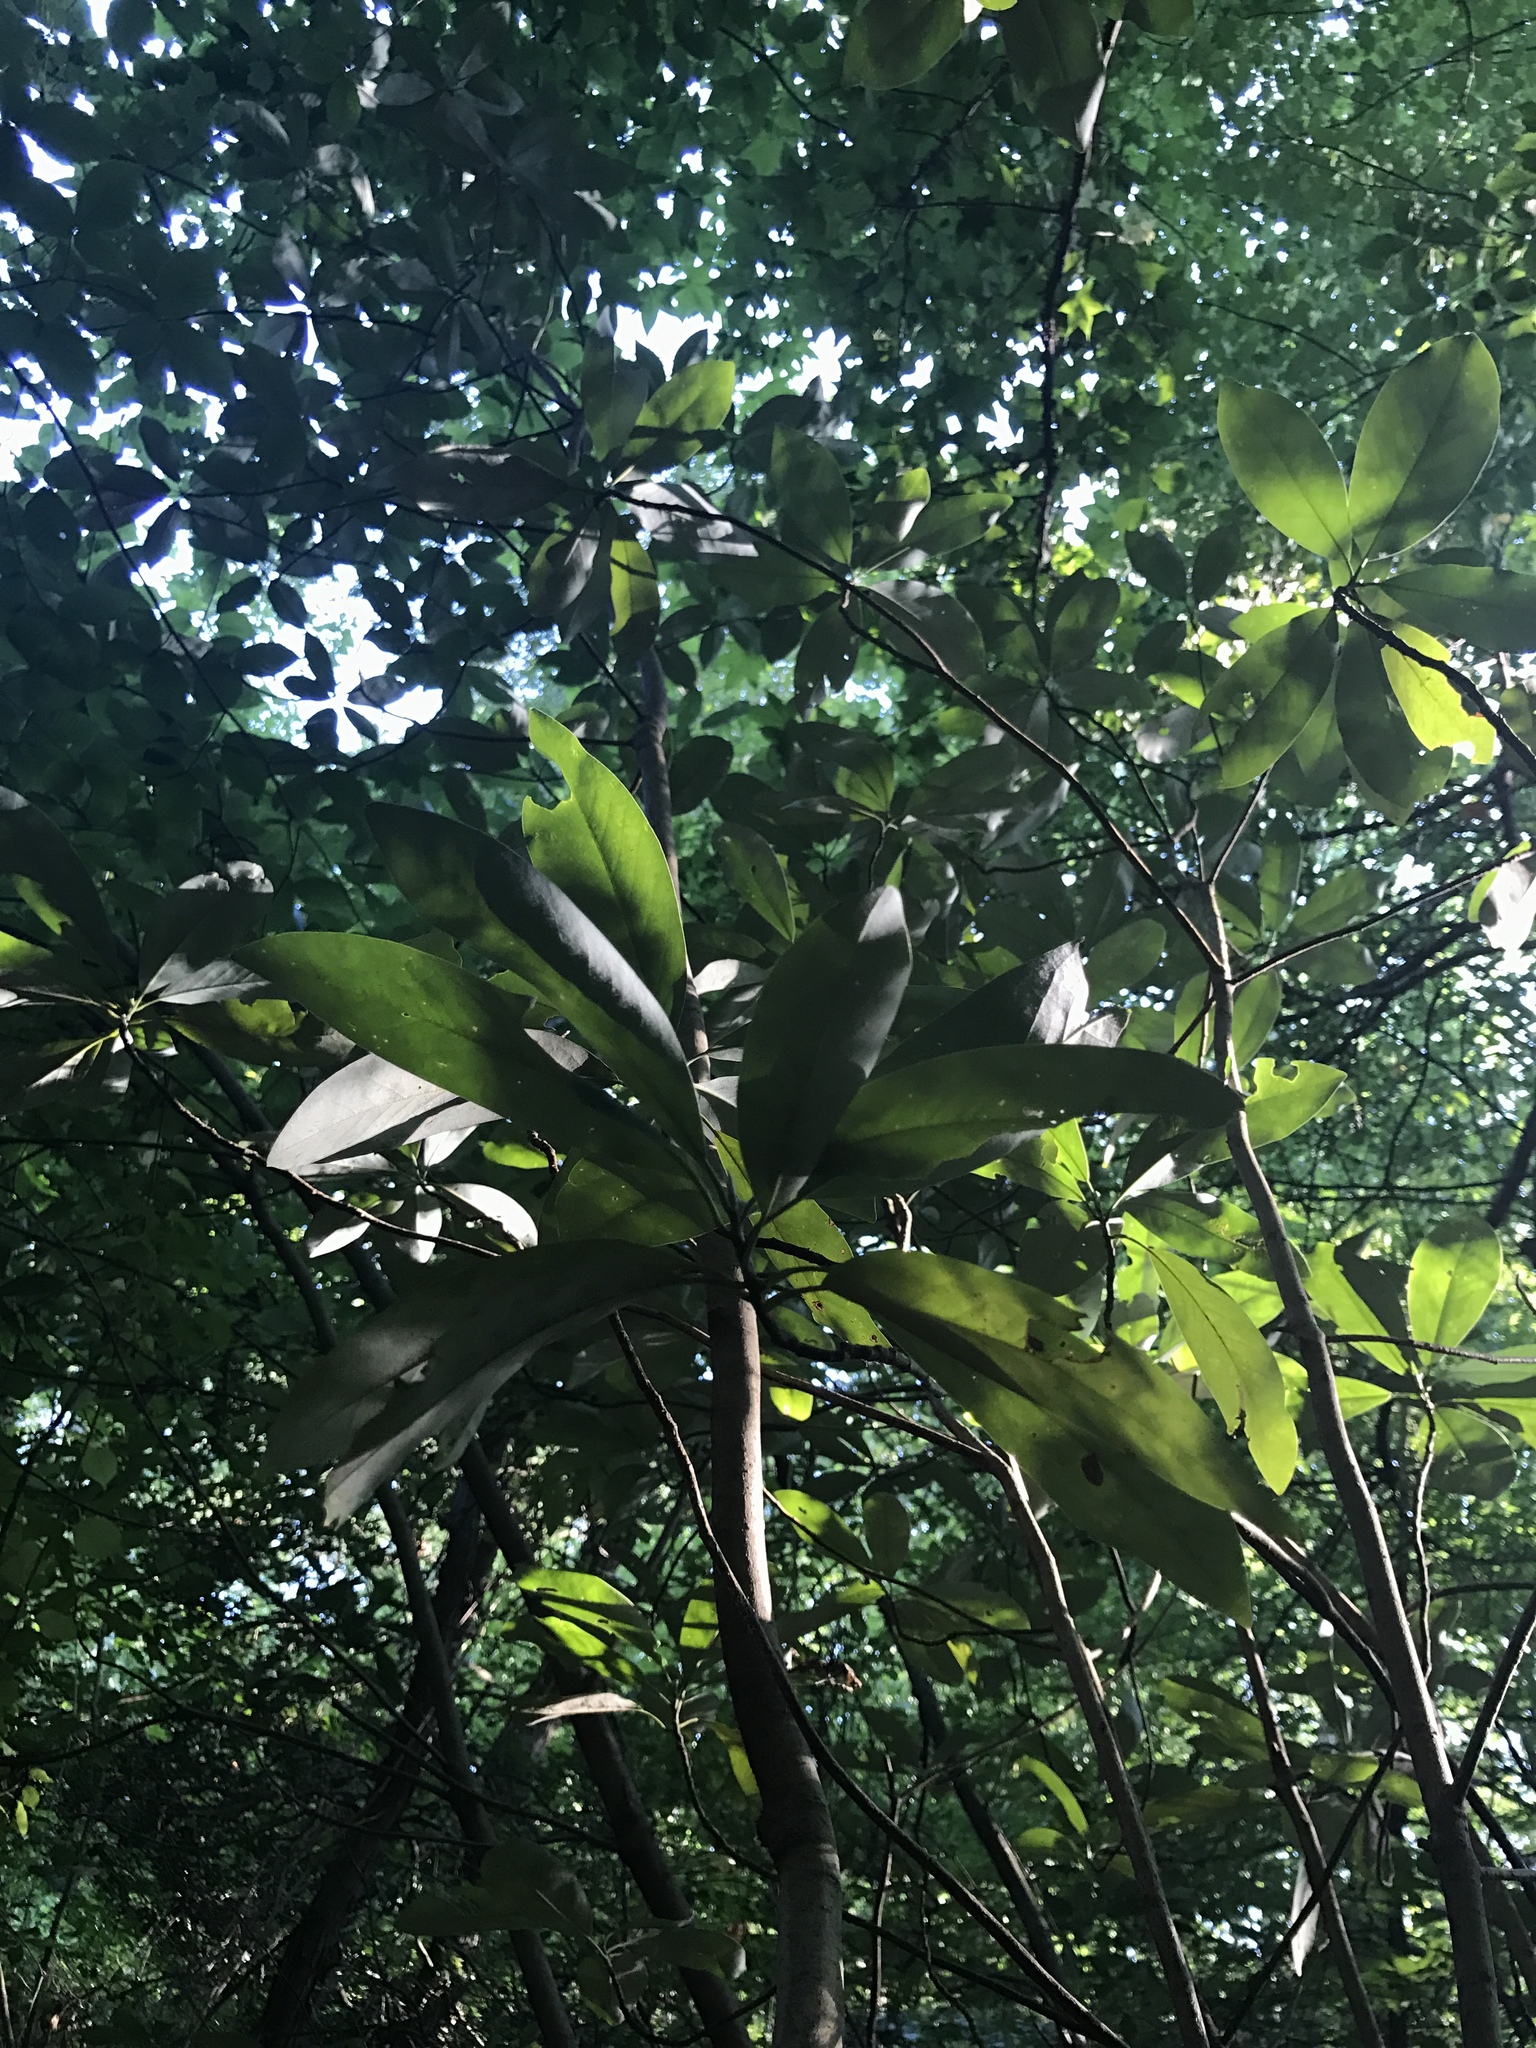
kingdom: Plantae
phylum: Tracheophyta
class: Magnoliopsida
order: Magnoliales
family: Magnoliaceae
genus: Magnolia
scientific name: Magnolia virginiana
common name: Swamp bay
